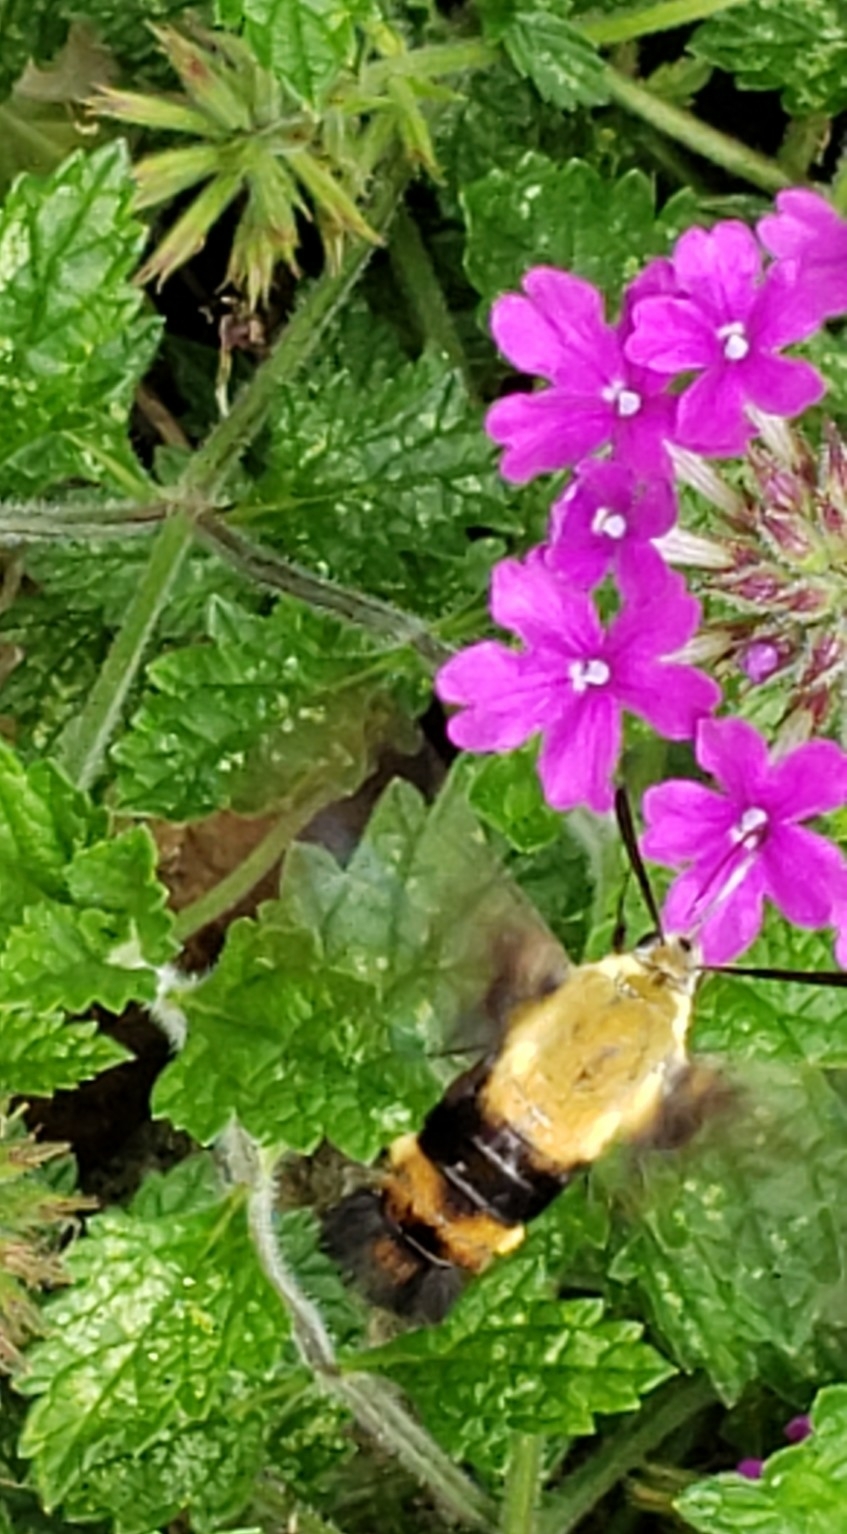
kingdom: Animalia
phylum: Arthropoda
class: Insecta
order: Lepidoptera
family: Sphingidae
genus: Hemaris
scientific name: Hemaris diffinis
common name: Bumblebee moth
